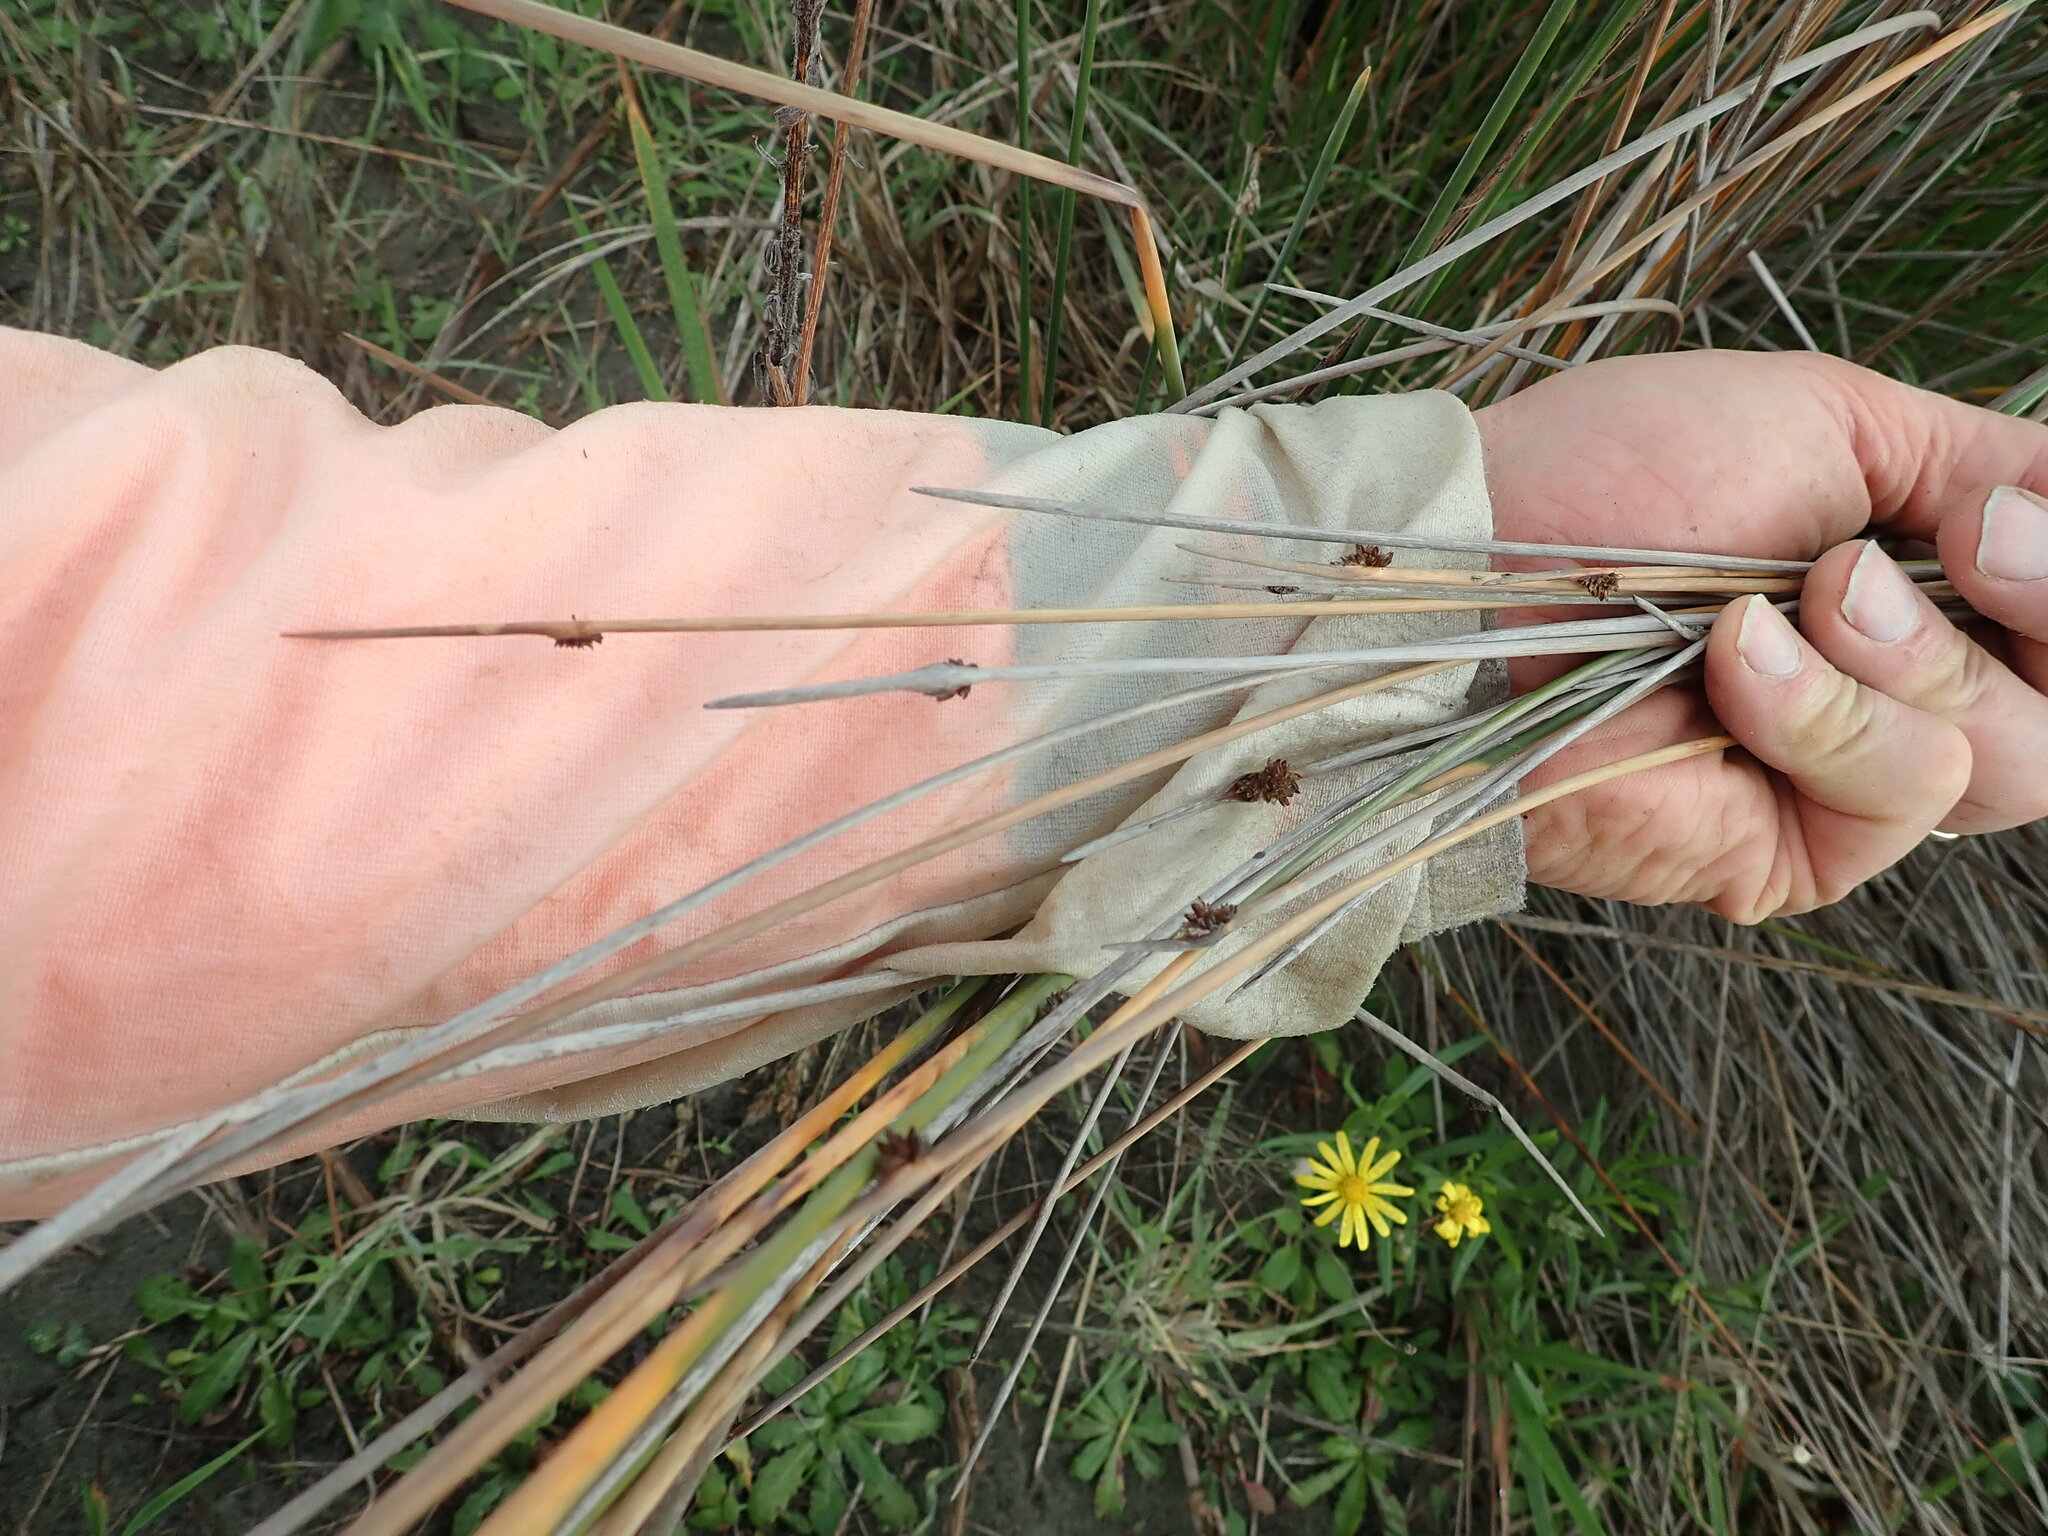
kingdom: Plantae
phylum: Tracheophyta
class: Liliopsida
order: Poales
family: Cyperaceae
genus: Ficinia
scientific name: Ficinia nodosa
